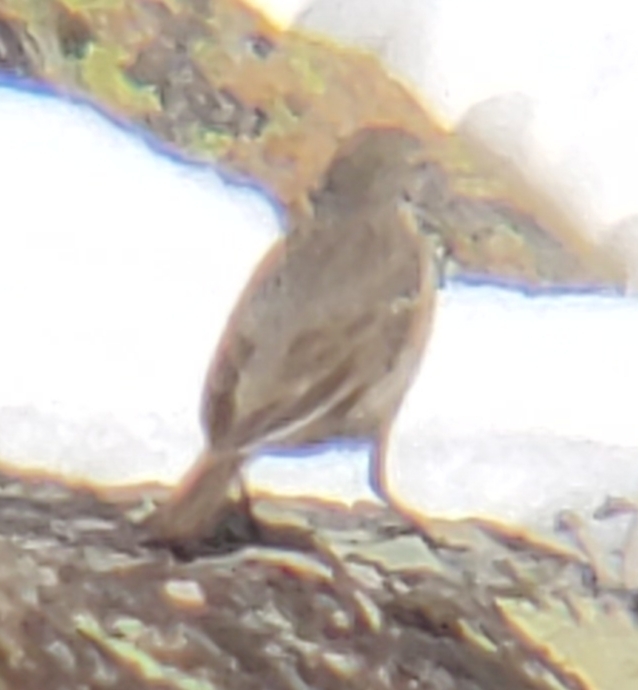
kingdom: Animalia
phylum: Chordata
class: Aves
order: Passeriformes
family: Motacillidae
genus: Anthus
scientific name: Anthus rubescens
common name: Buff-bellied pipit
